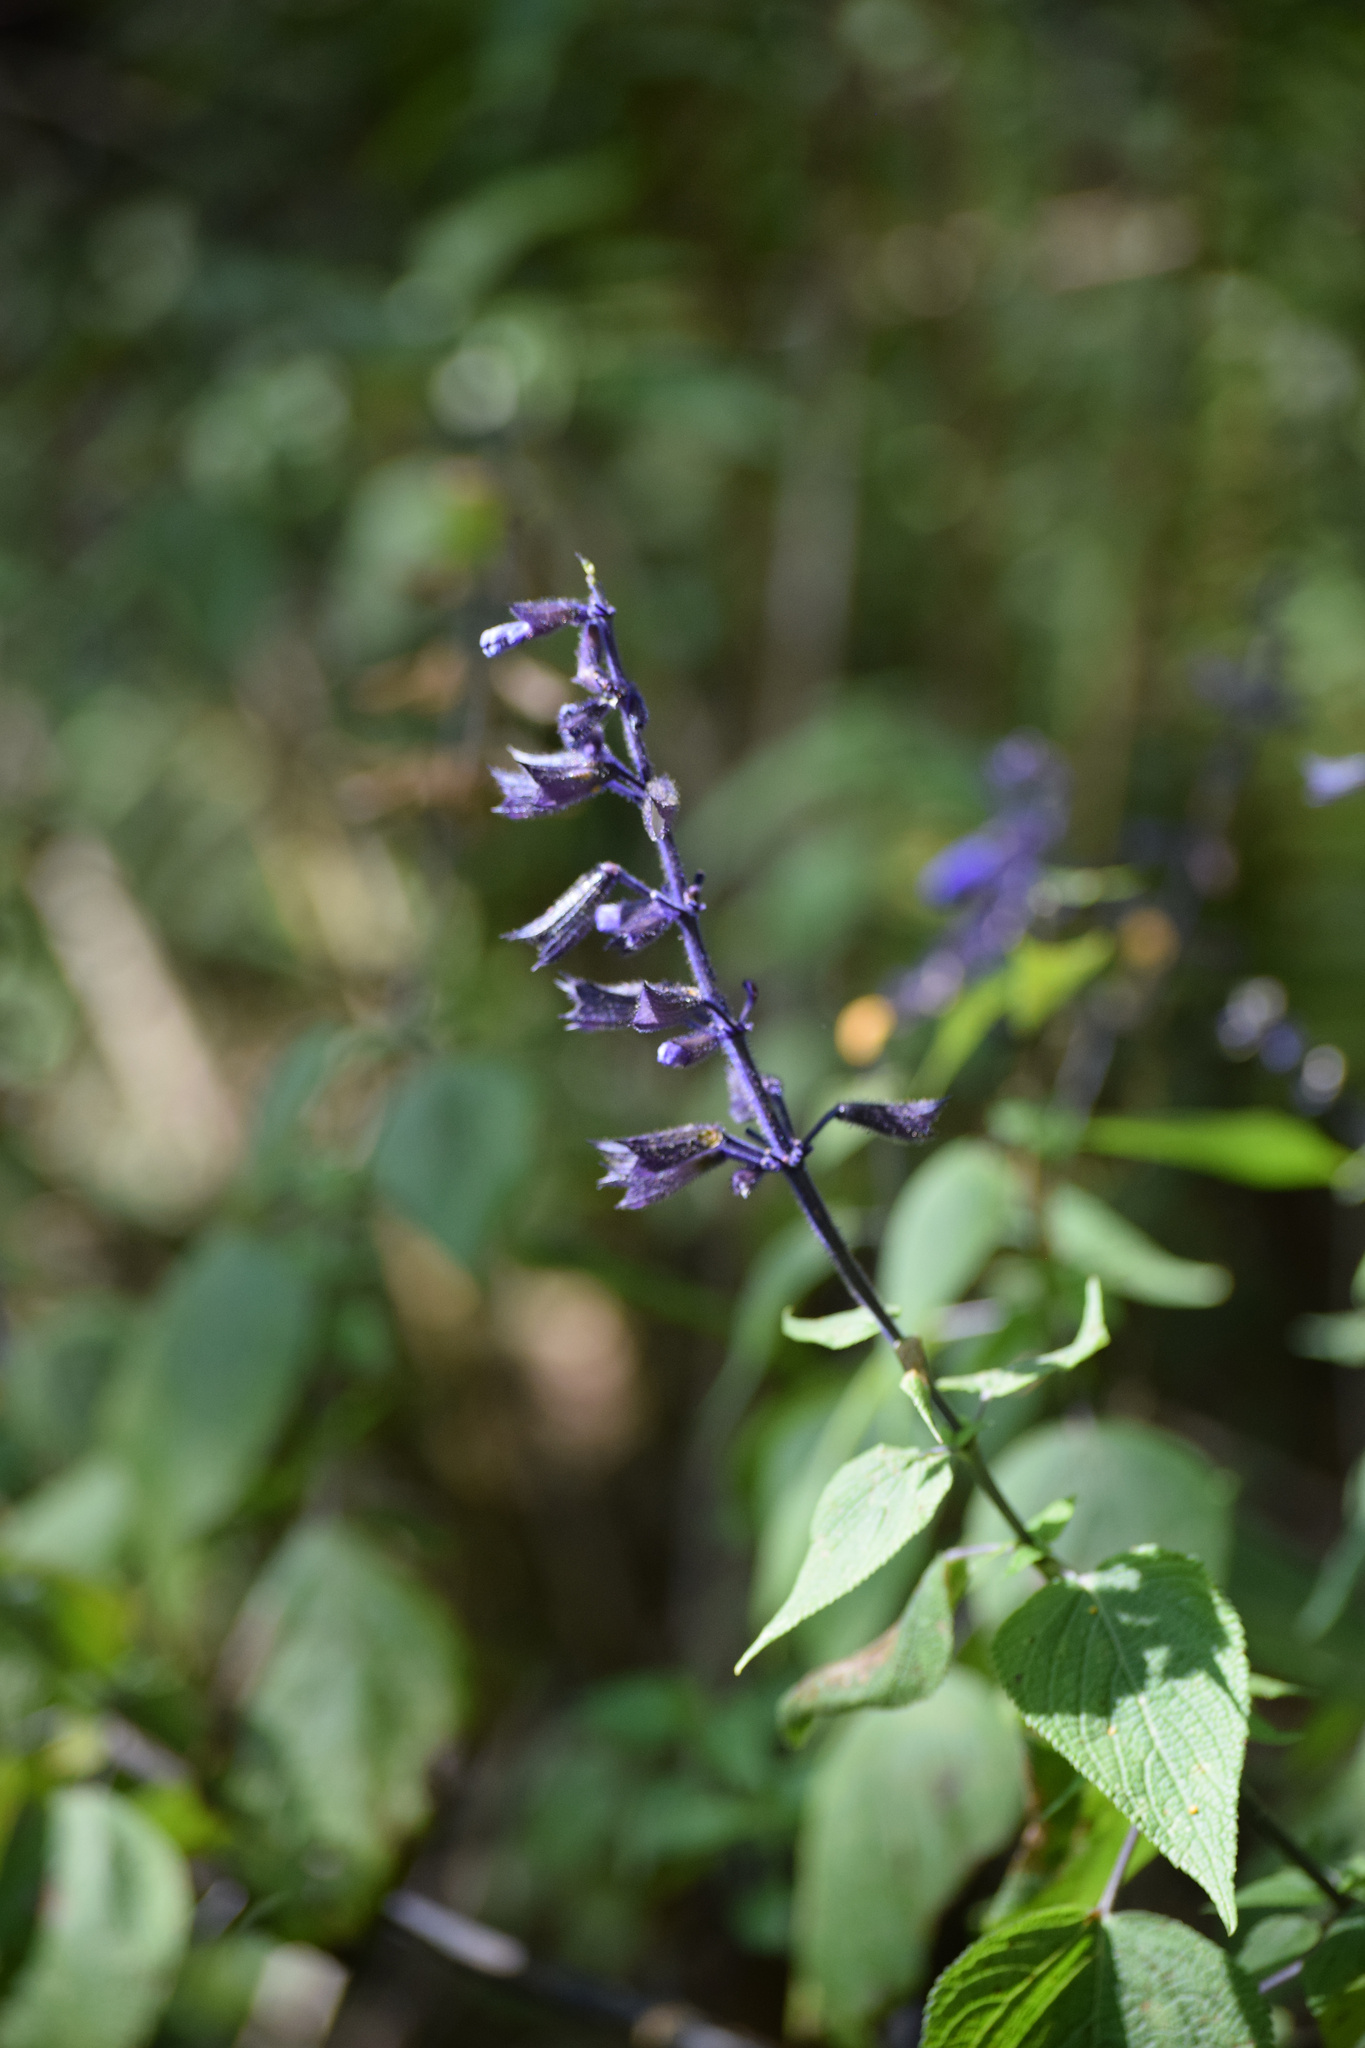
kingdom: Plantae
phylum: Tracheophyta
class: Magnoliopsida
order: Lamiales
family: Lamiaceae
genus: Salvia
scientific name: Salvia concolor
